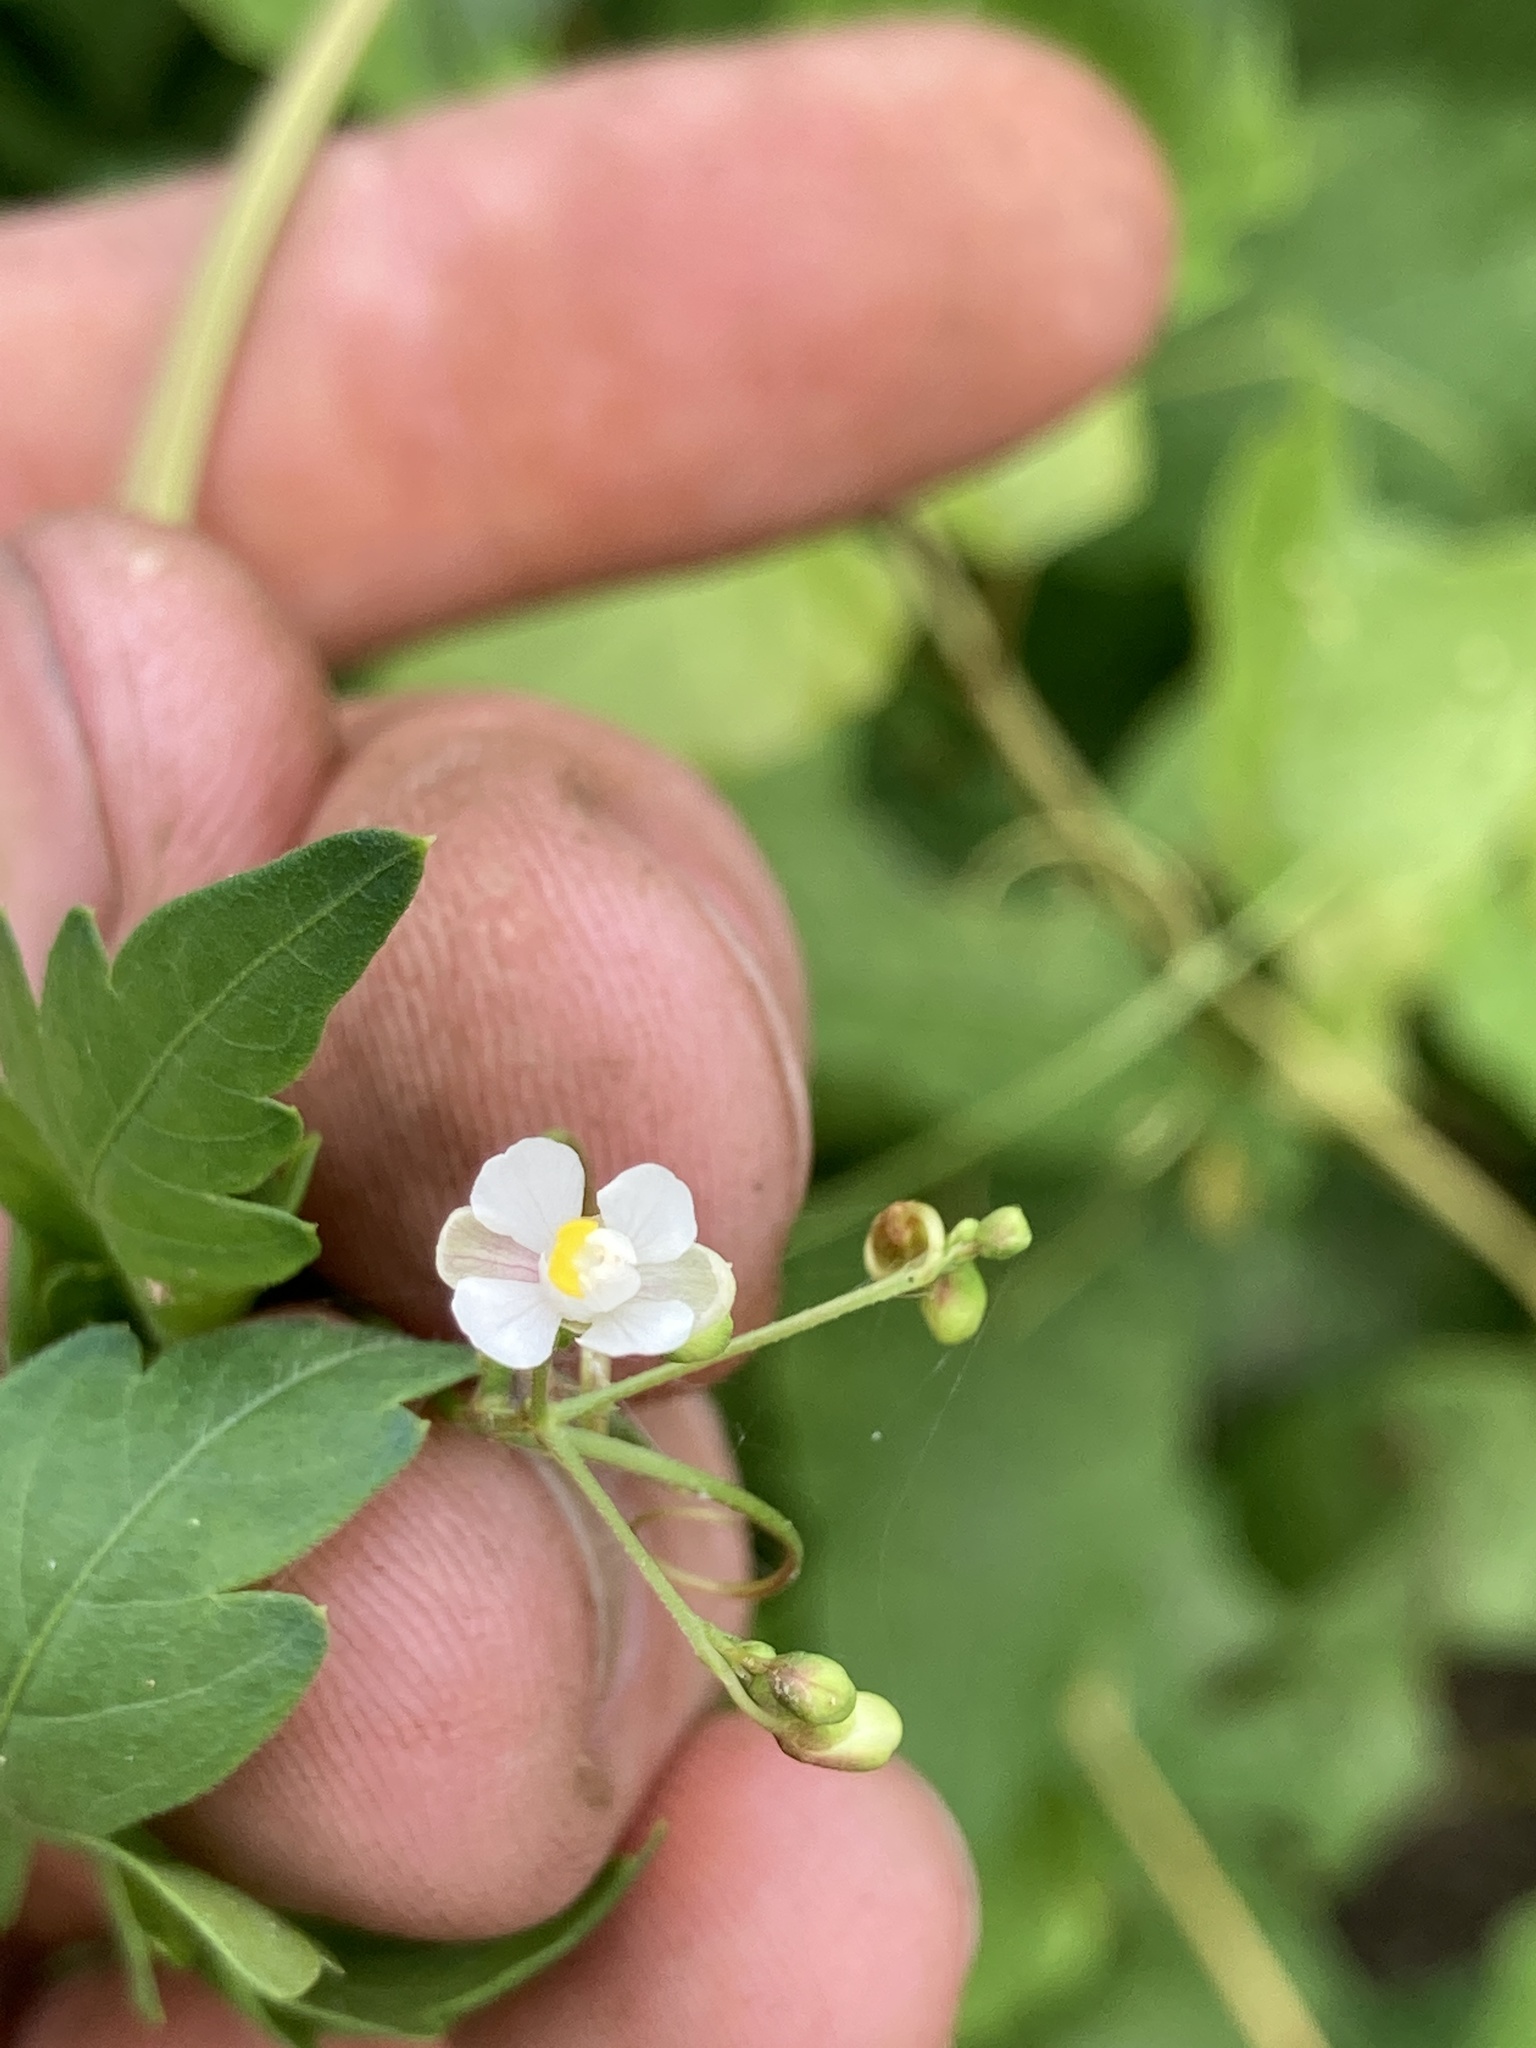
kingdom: Plantae
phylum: Tracheophyta
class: Magnoliopsida
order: Sapindales
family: Sapindaceae
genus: Cardiospermum
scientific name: Cardiospermum halicacabum
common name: Balloon vine
